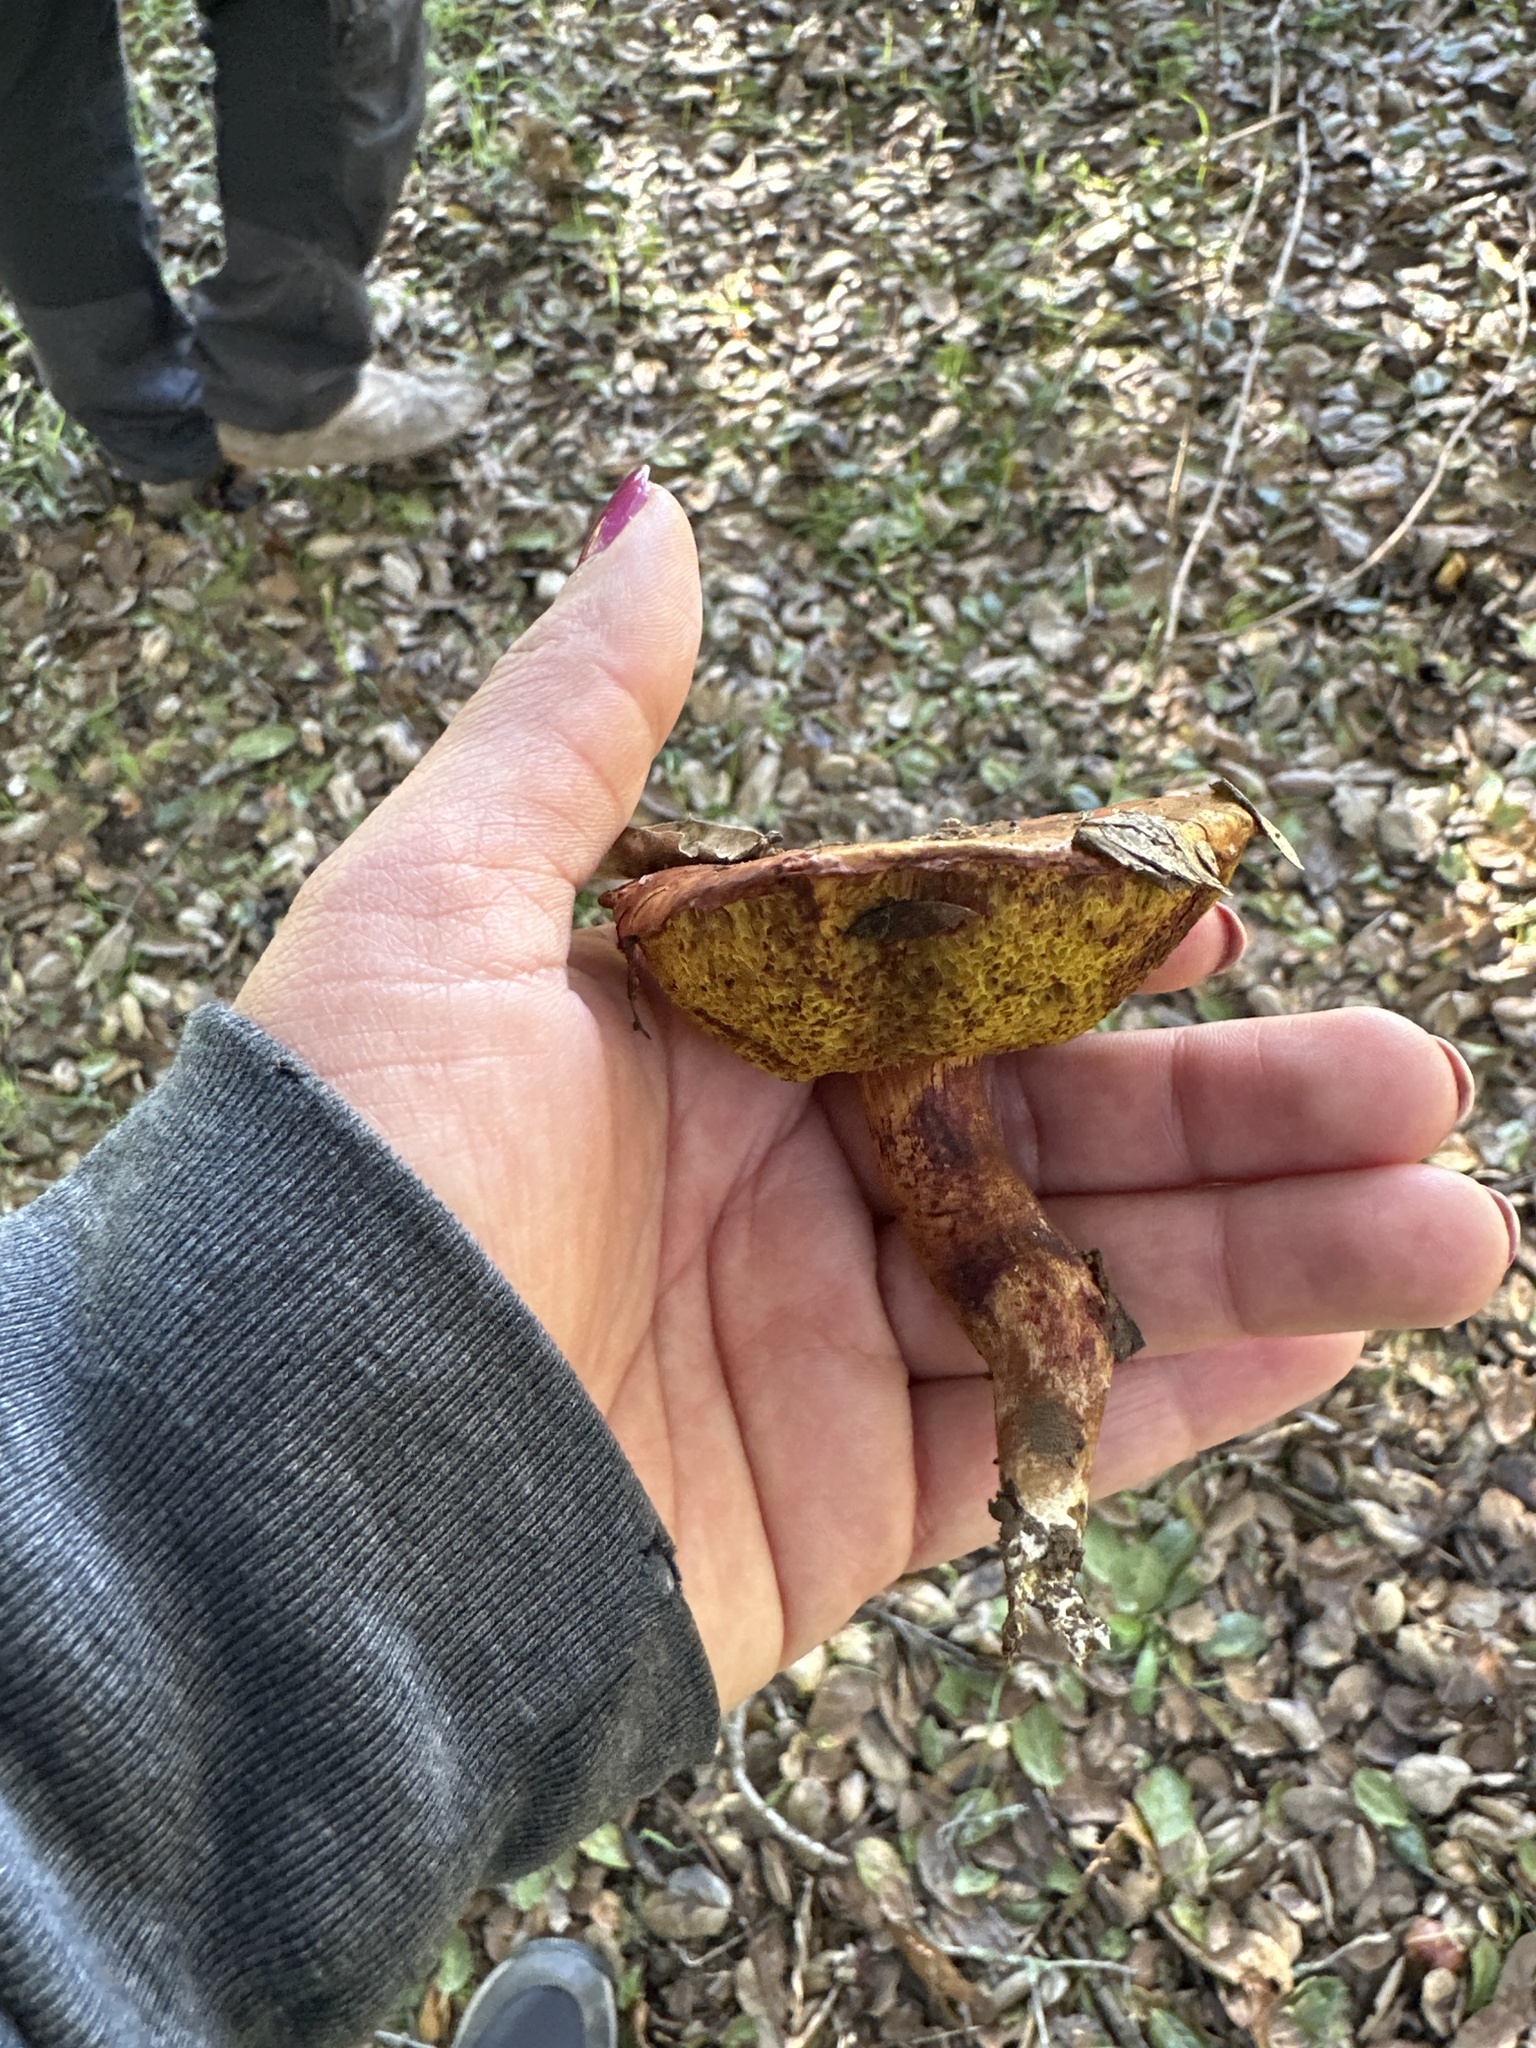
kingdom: Fungi
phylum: Basidiomycota
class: Agaricomycetes
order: Boletales
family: Boletaceae
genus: Aureoboletus
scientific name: Aureoboletus flaviporus
